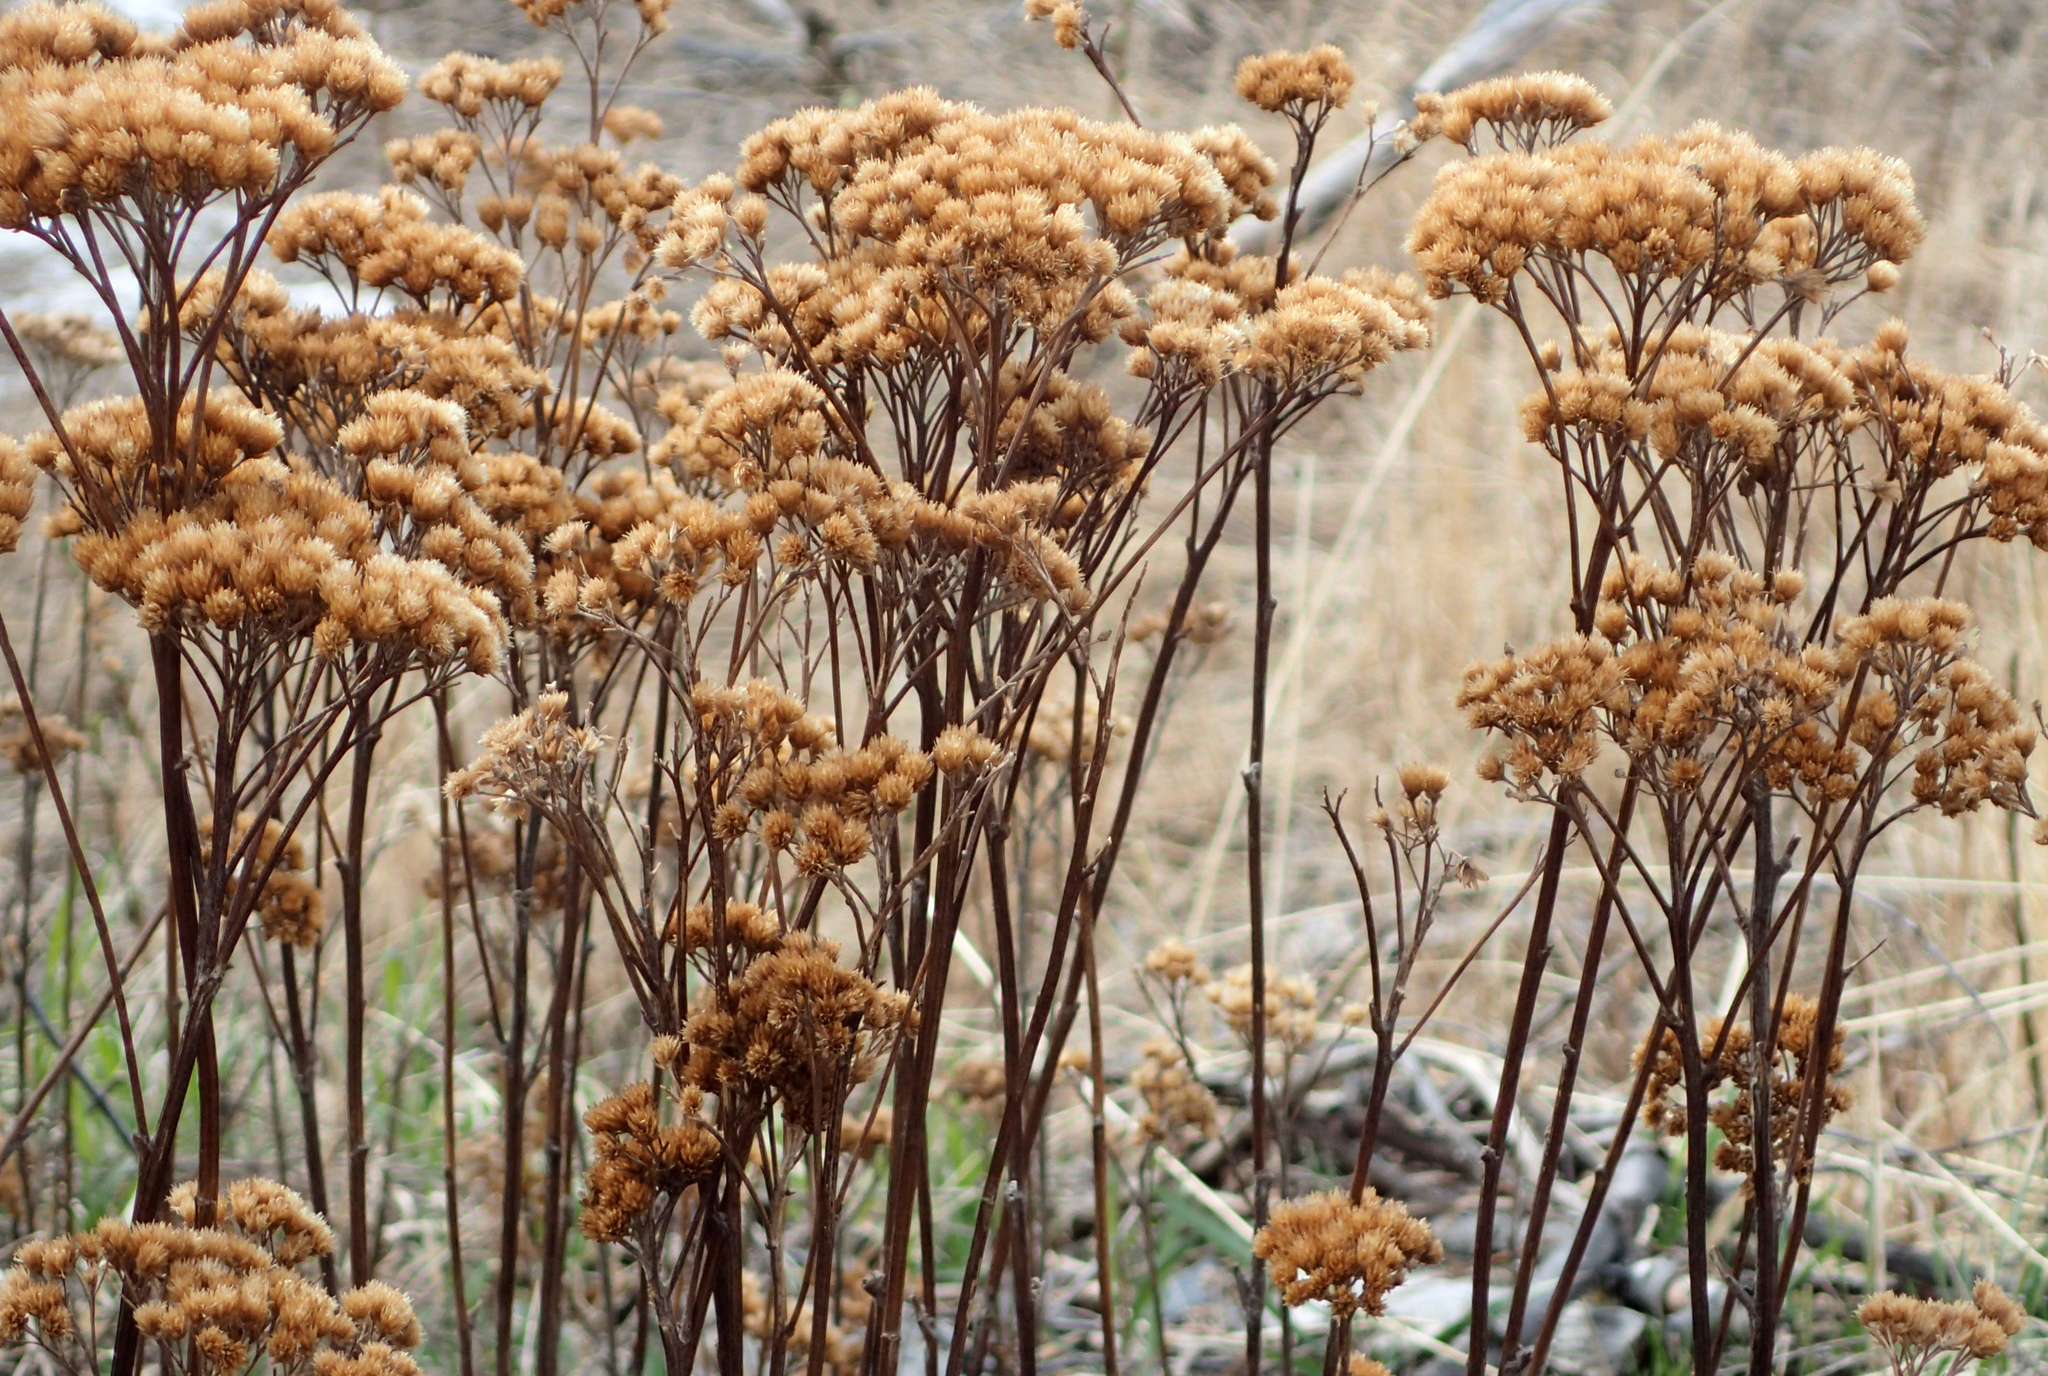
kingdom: Plantae
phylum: Tracheophyta
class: Magnoliopsida
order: Asterales
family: Asteraceae
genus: Achillea
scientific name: Achillea millefolium
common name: Yarrow
